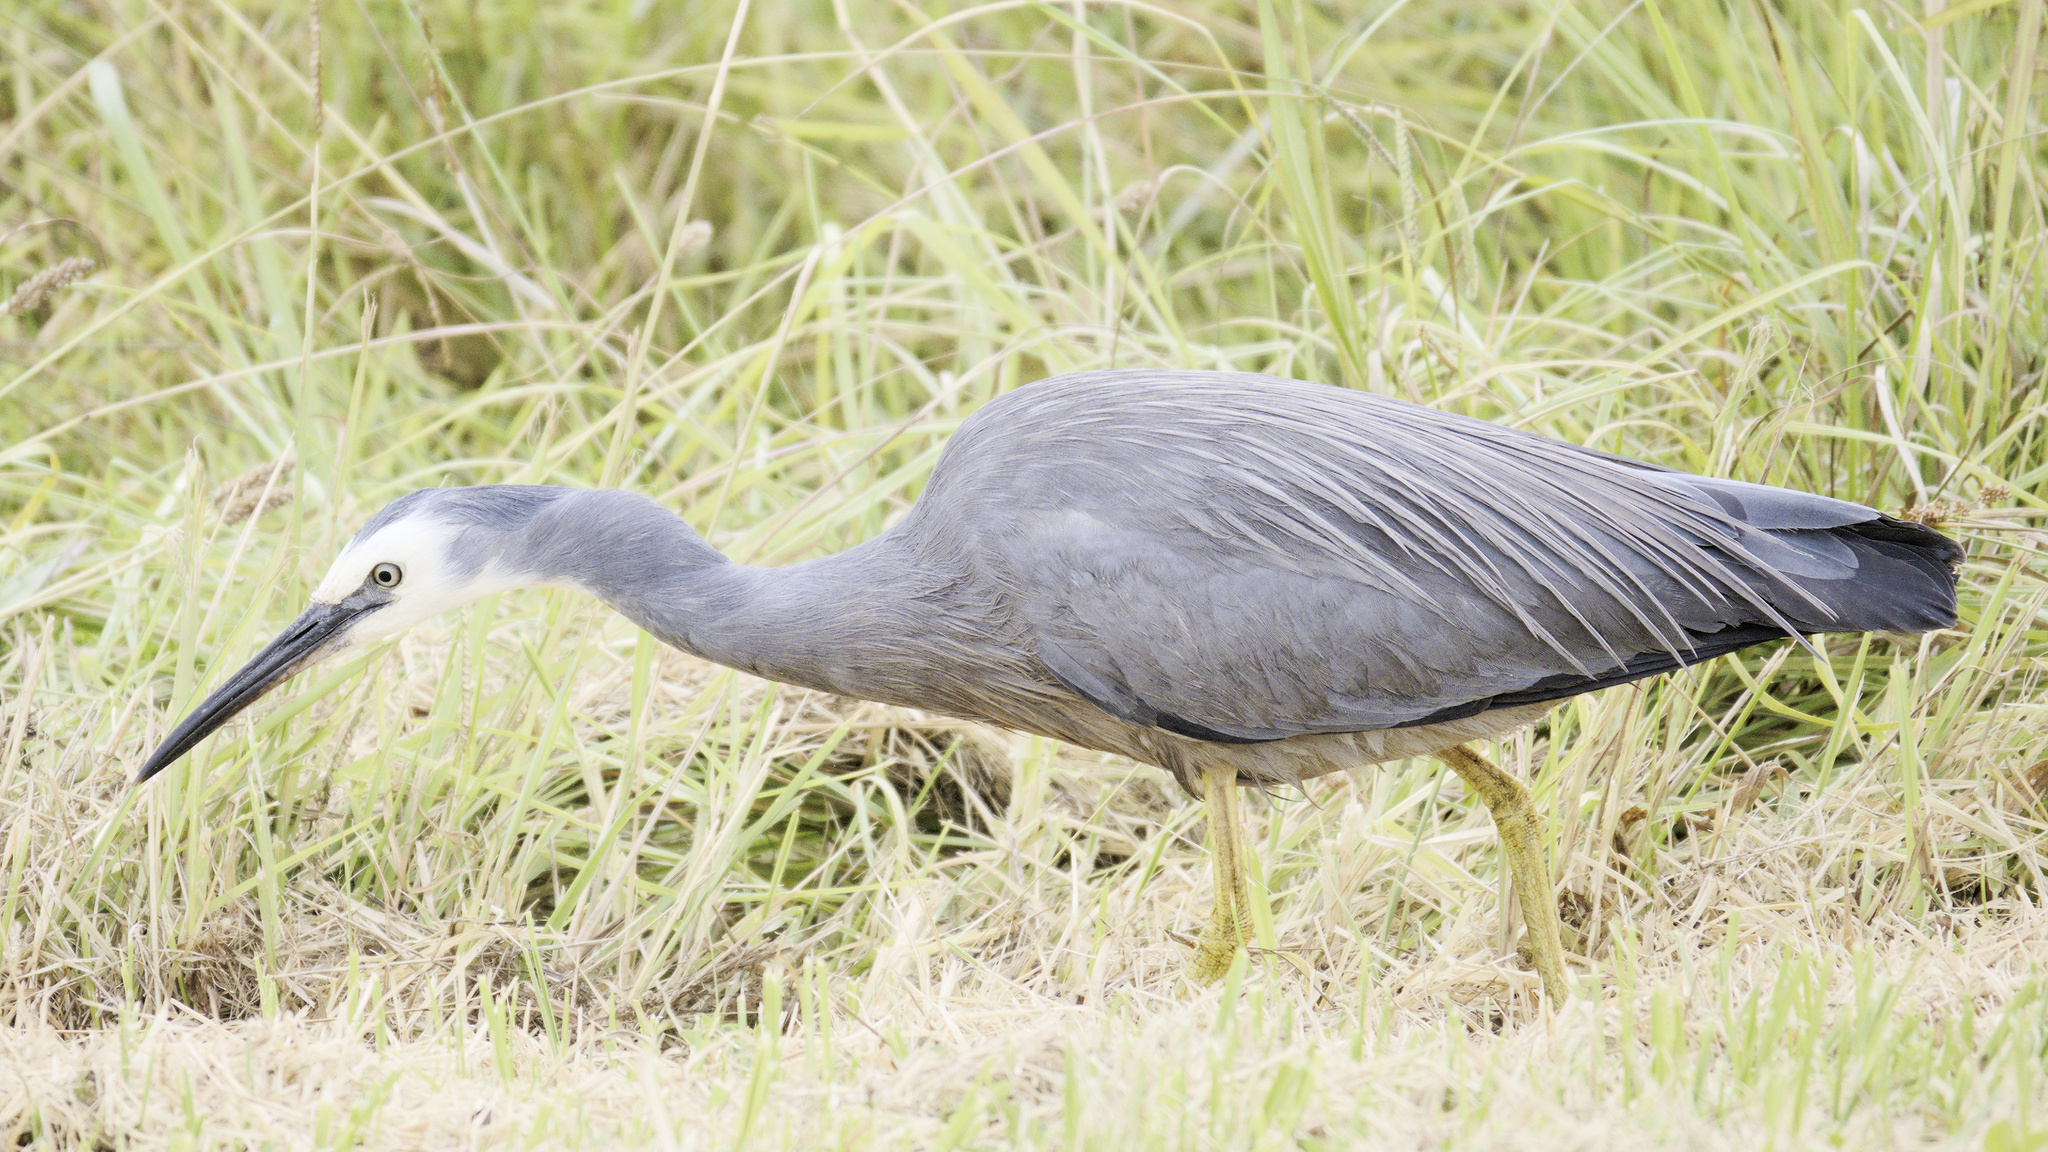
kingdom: Animalia
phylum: Chordata
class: Aves
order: Pelecaniformes
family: Ardeidae
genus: Egretta
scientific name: Egretta novaehollandiae
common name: White-faced heron
